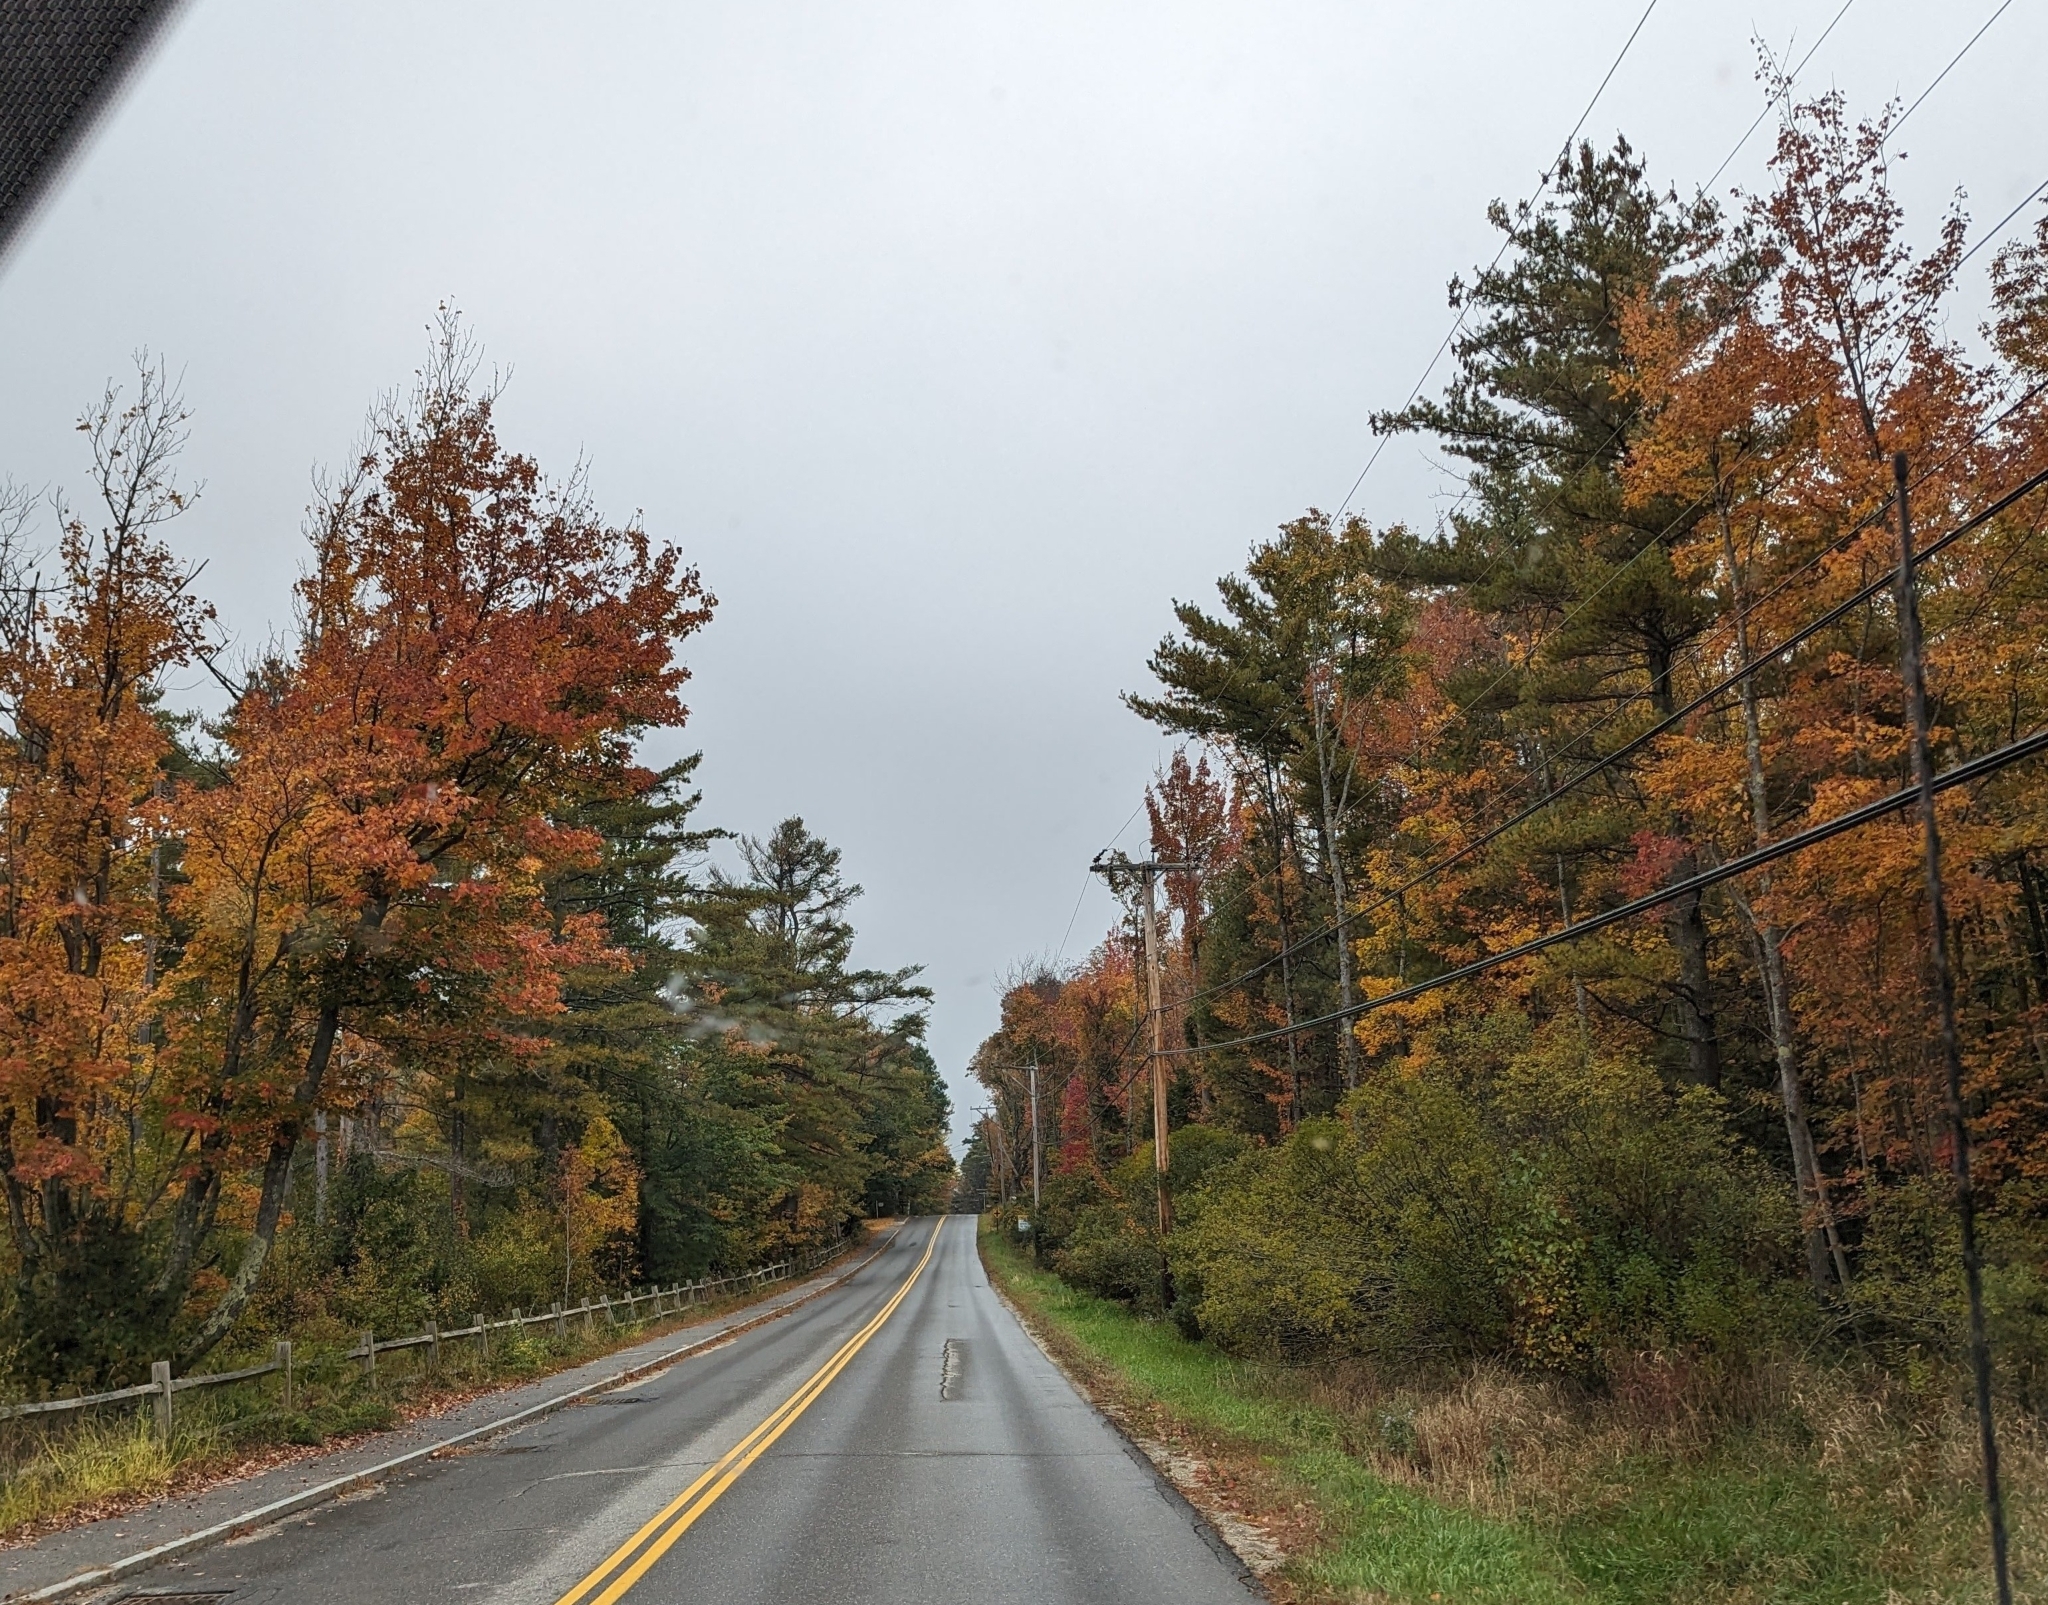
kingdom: Plantae
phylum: Tracheophyta
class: Pinopsida
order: Pinales
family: Pinaceae
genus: Pinus
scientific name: Pinus strobus
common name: Weymouth pine
